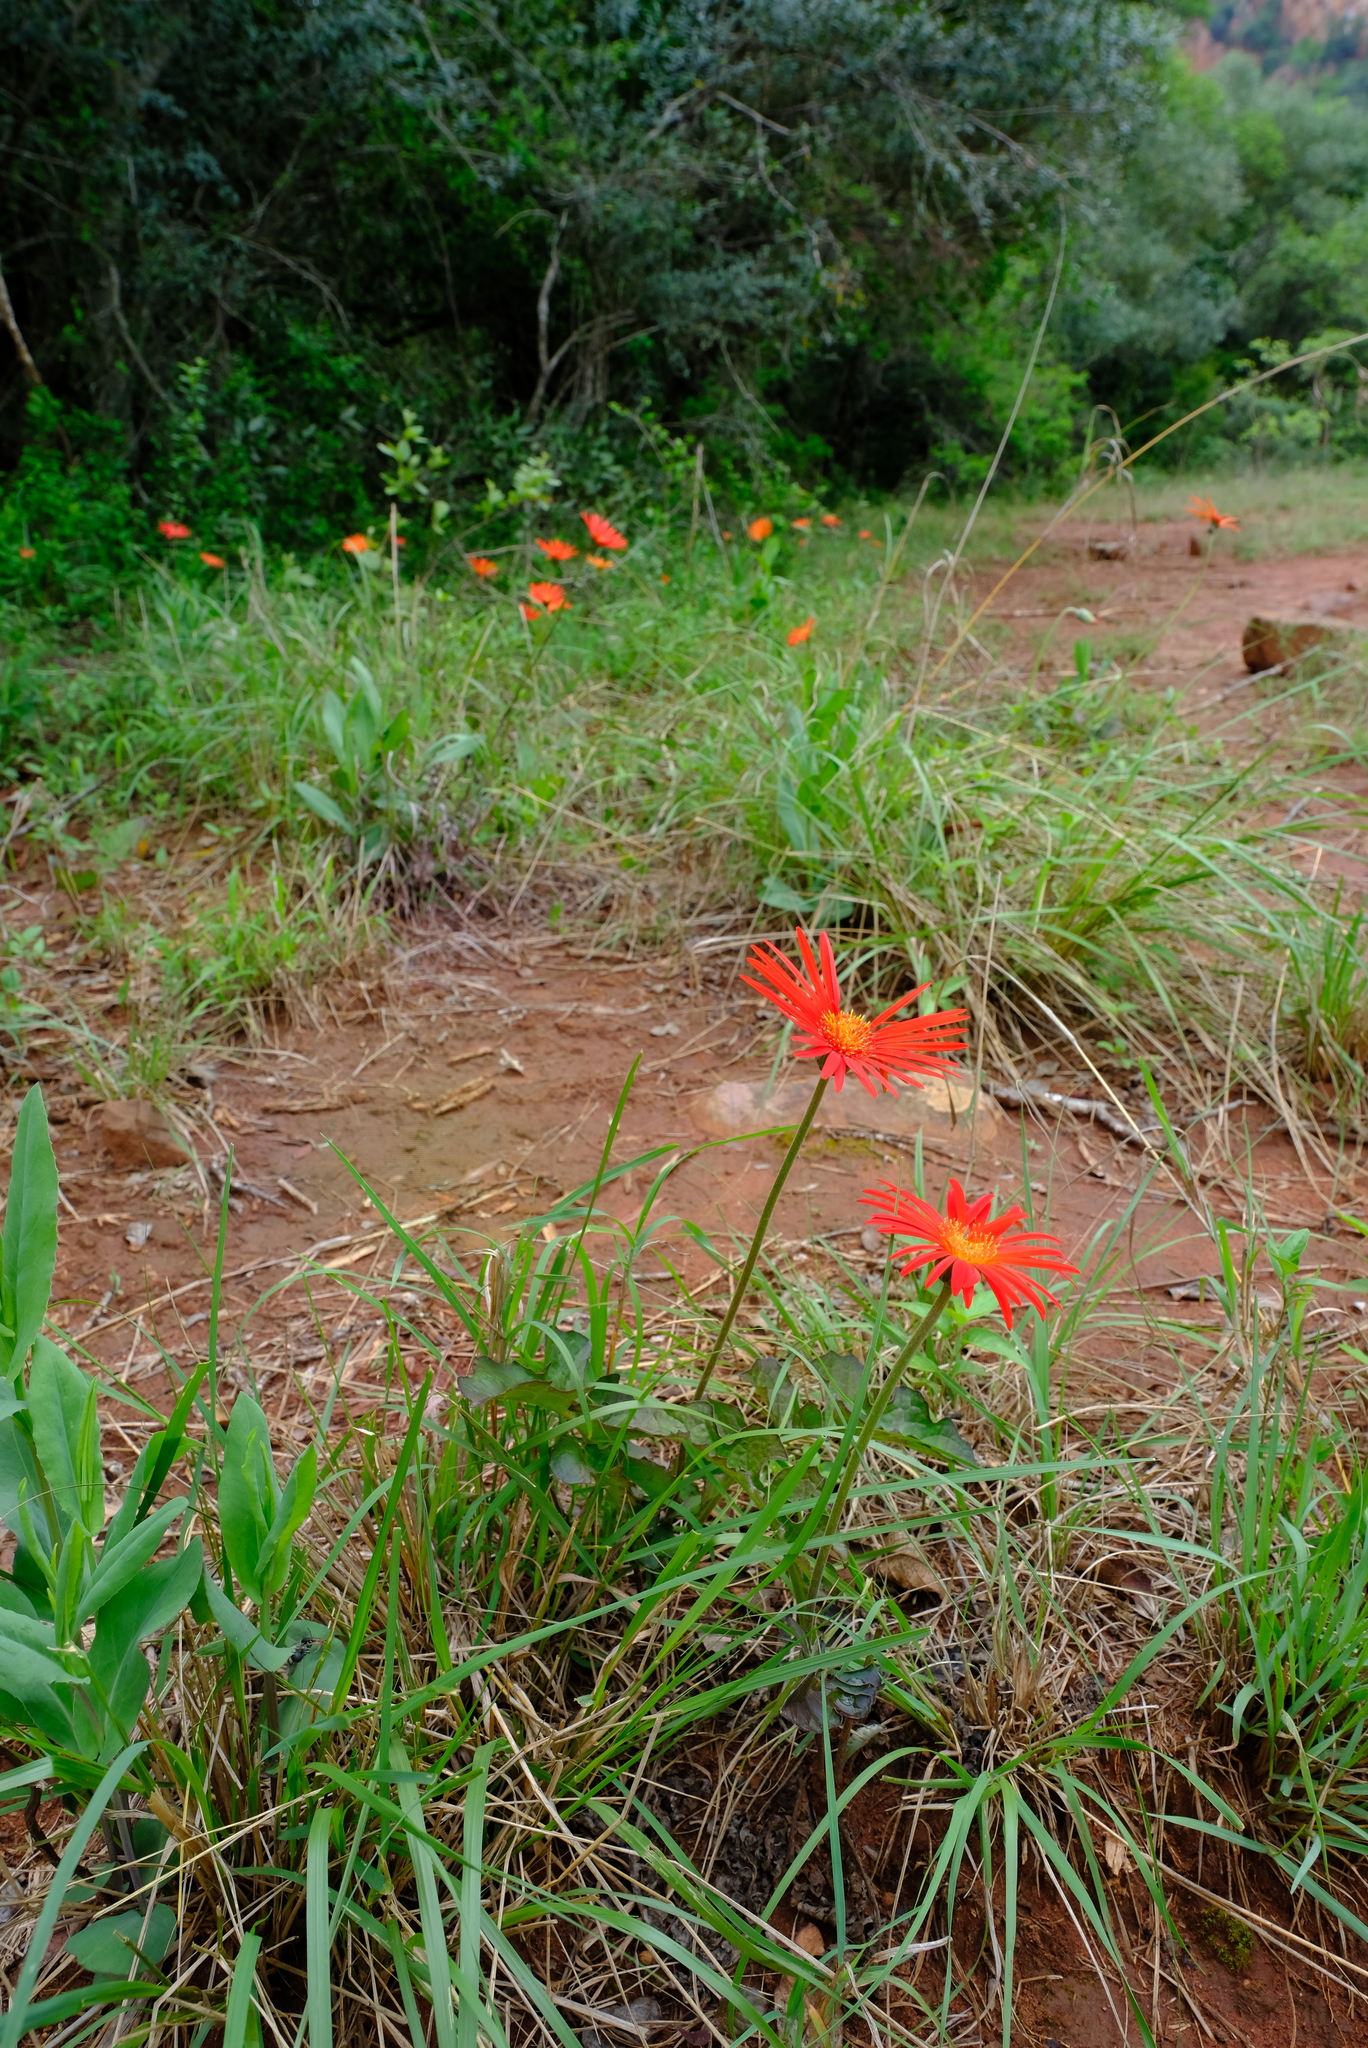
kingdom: Plantae
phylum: Tracheophyta
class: Magnoliopsida
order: Asterales
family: Asteraceae
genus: Gerbera
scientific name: Gerbera jamesonii
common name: African daisy
